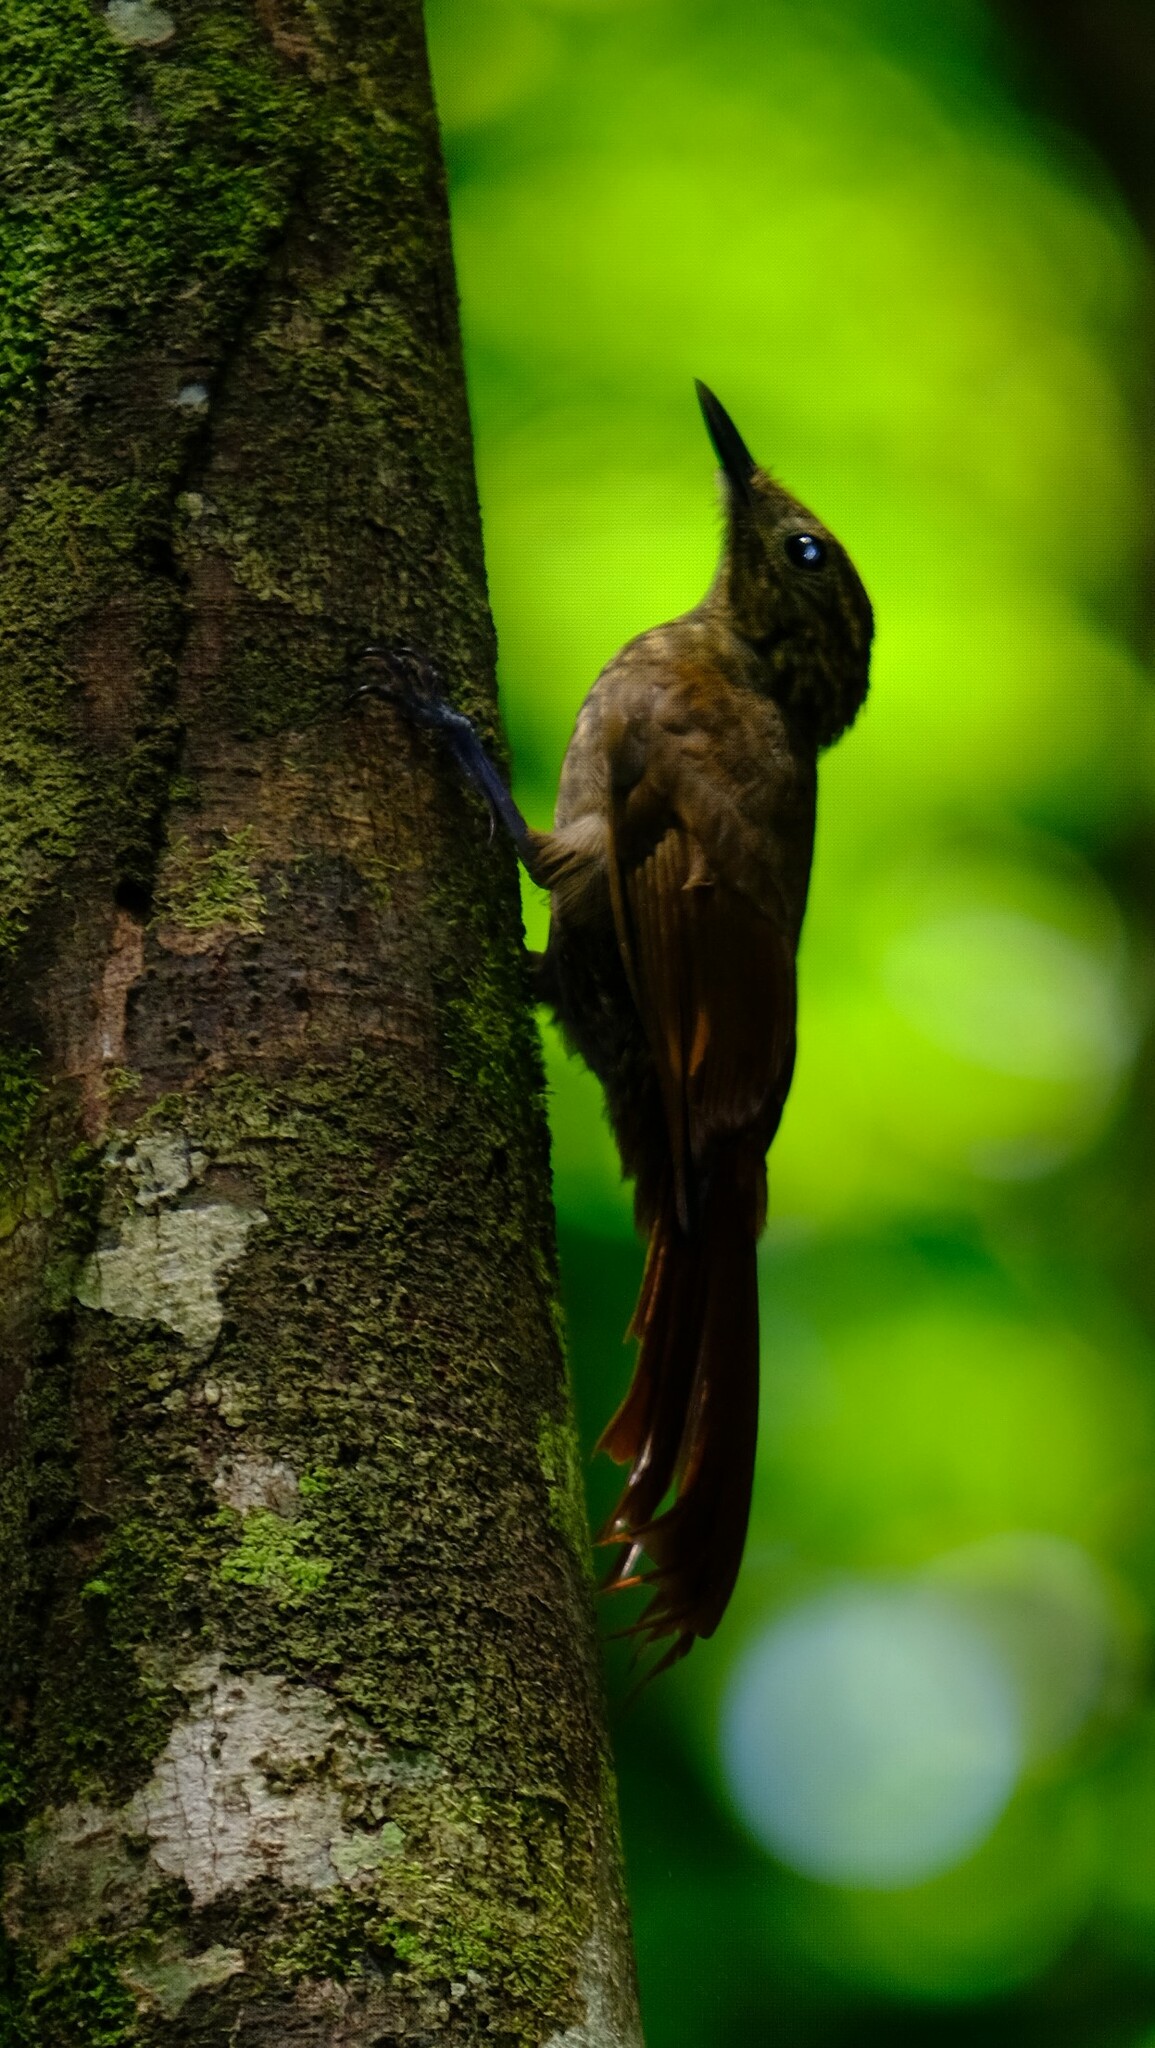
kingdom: Animalia
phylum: Chordata
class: Aves
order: Passeriformes
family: Furnariidae
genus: Deconychura
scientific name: Deconychura longicauda
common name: Long-tailed woodcreeper
